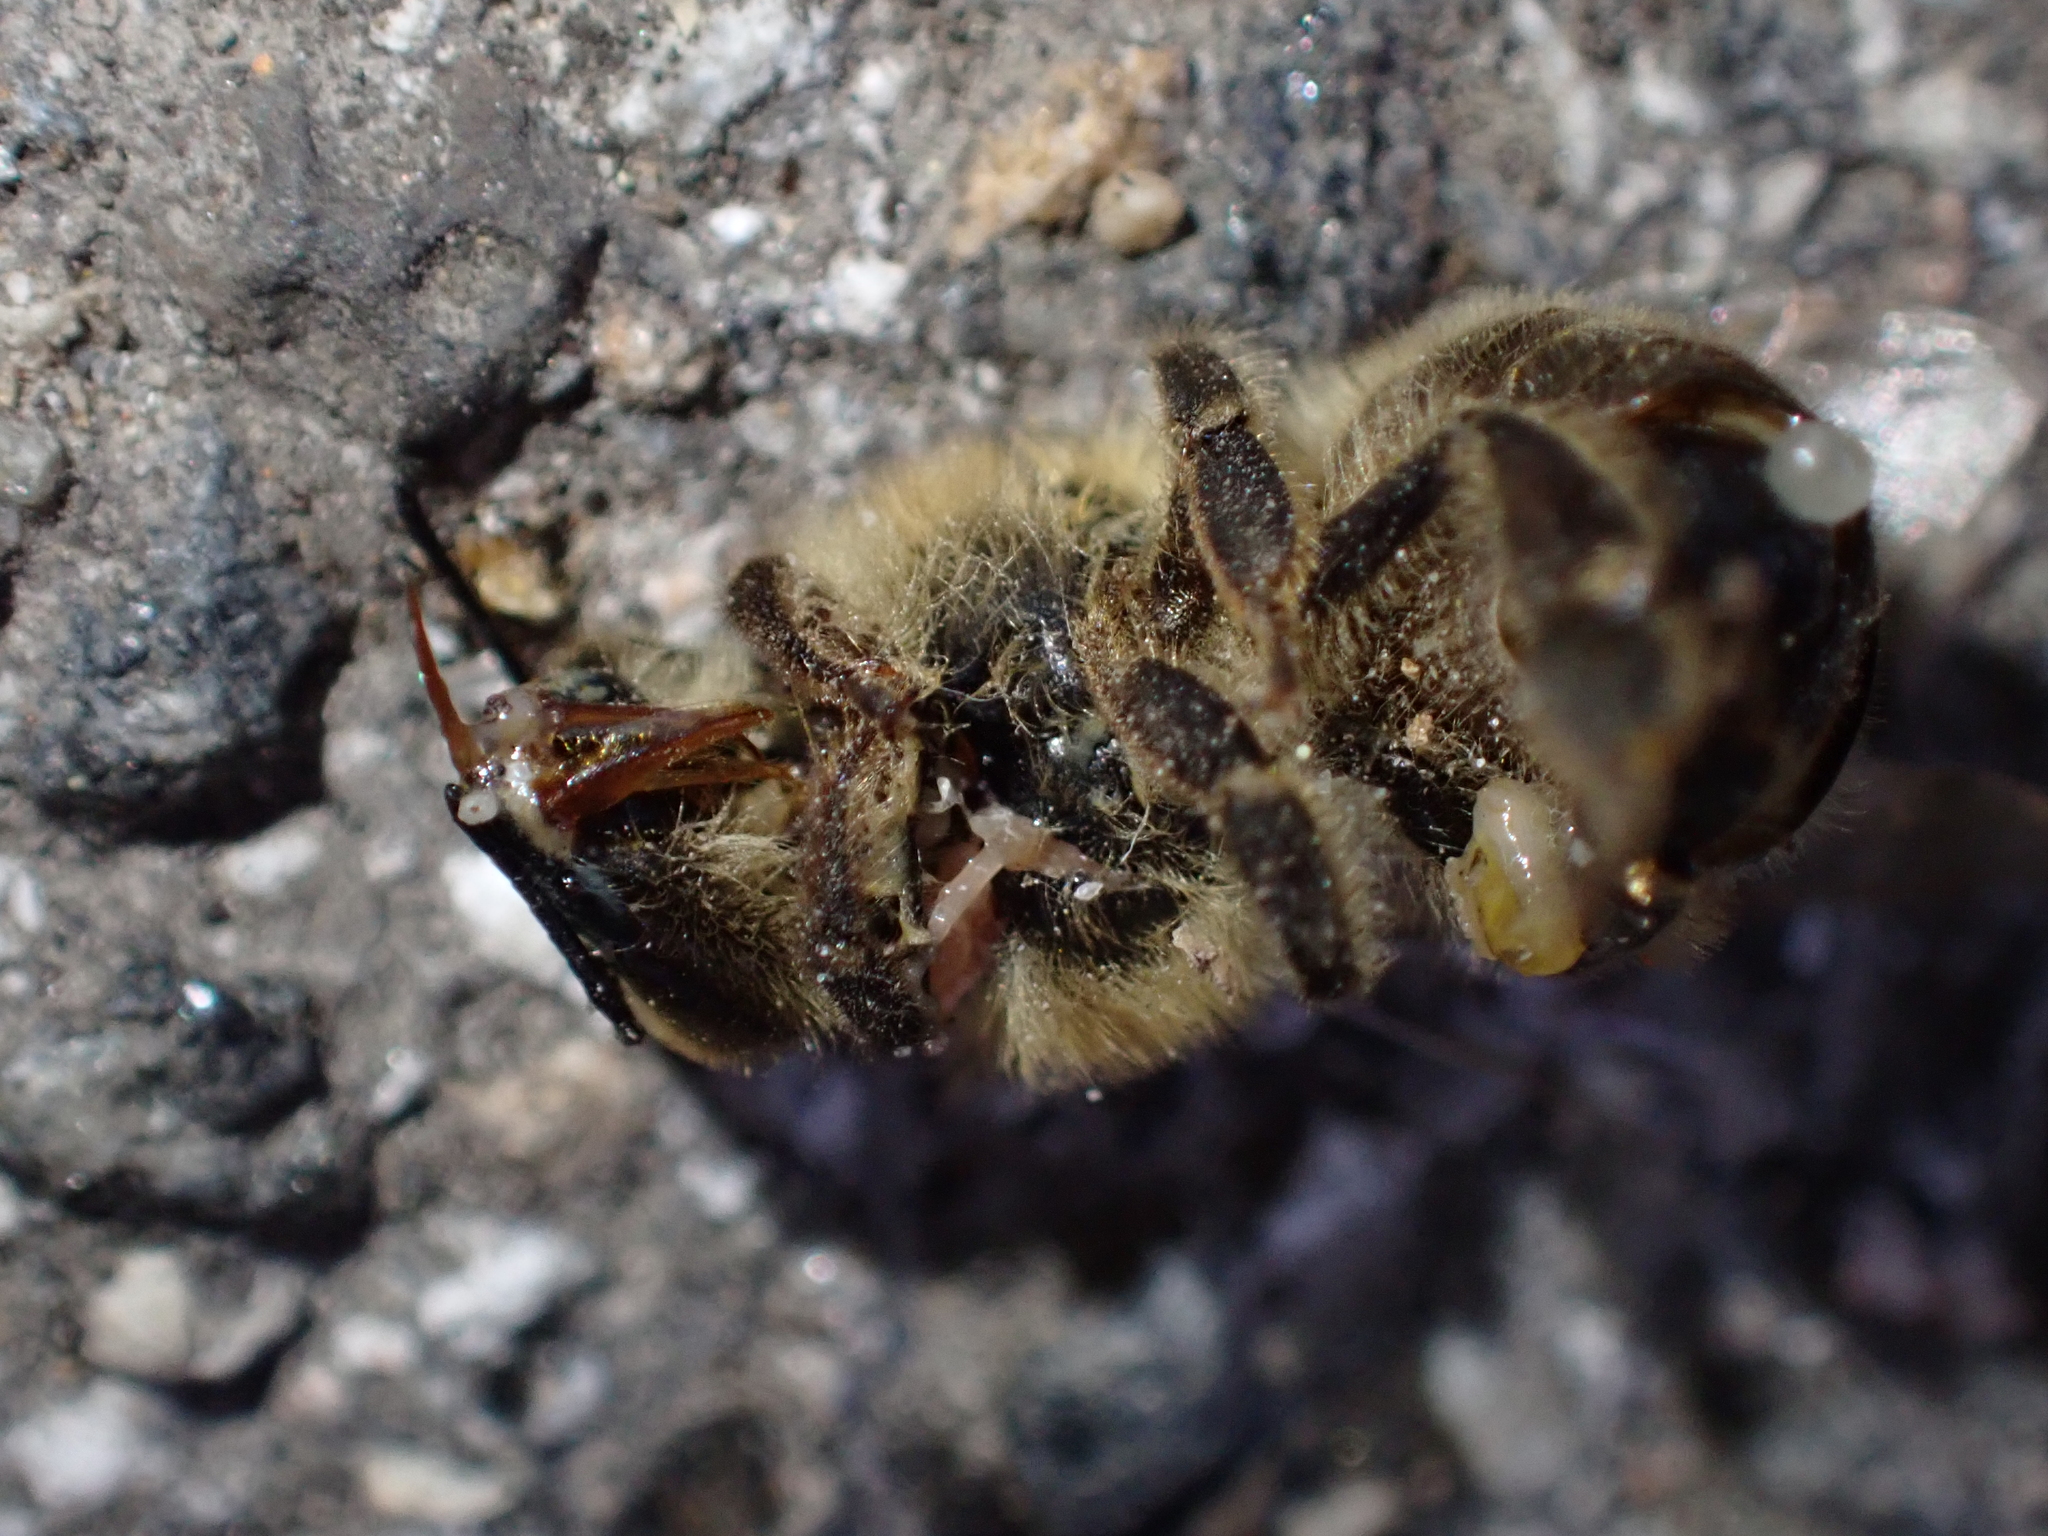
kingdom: Animalia
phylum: Arthropoda
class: Insecta
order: Hymenoptera
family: Apidae
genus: Apis
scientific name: Apis mellifera
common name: Honey bee
